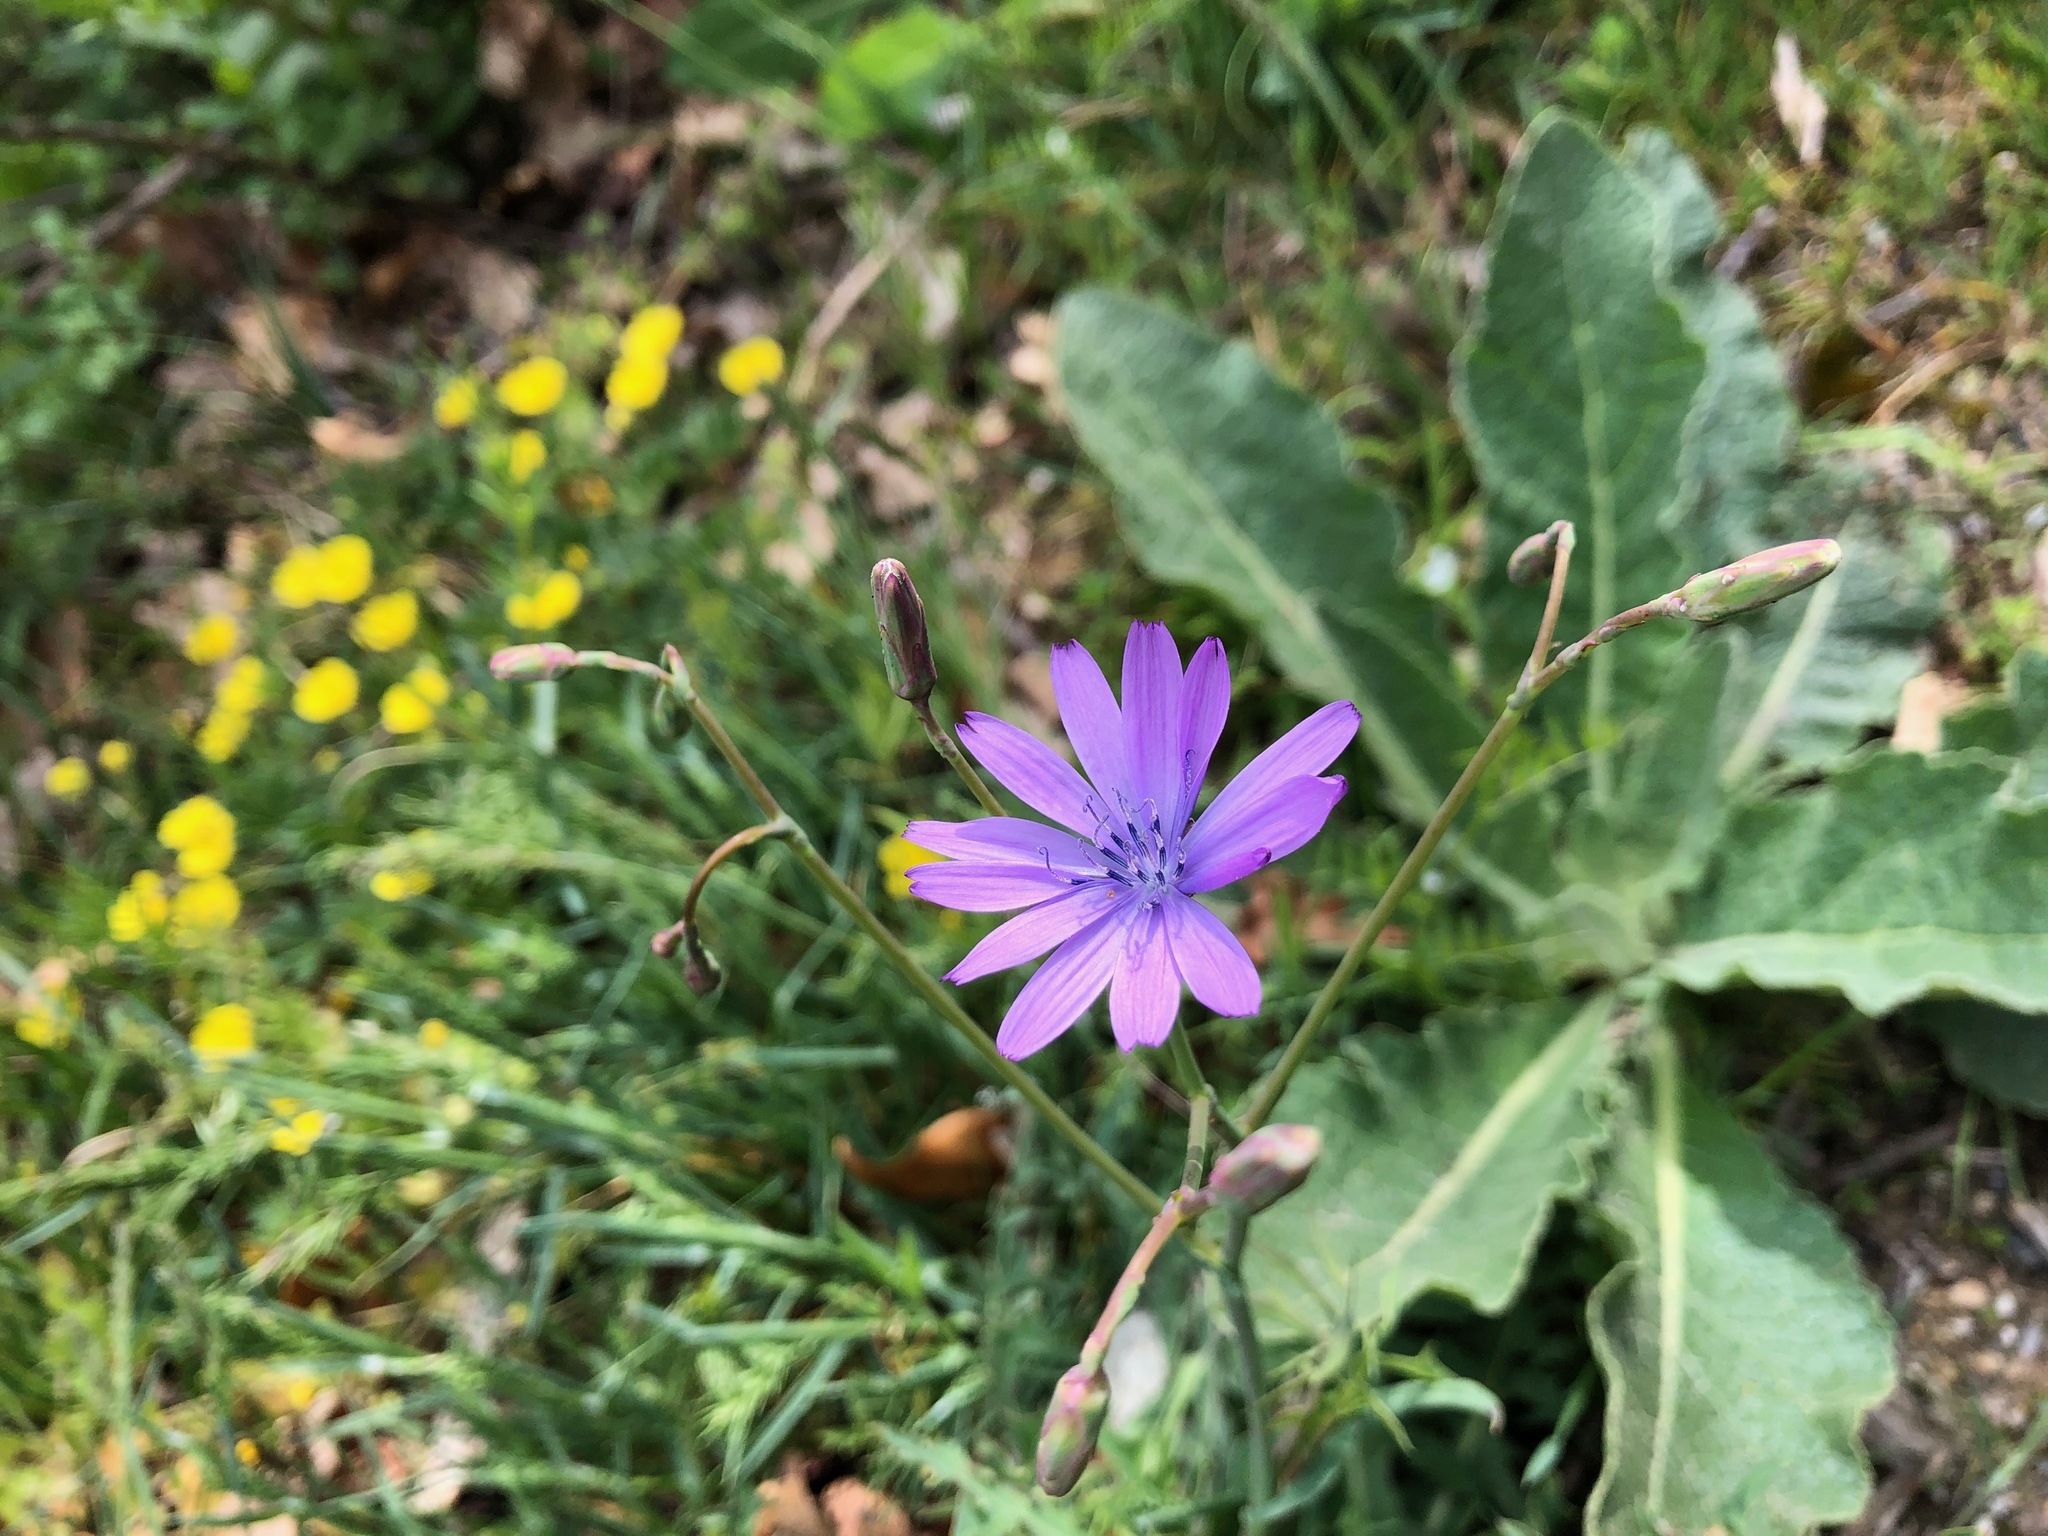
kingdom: Plantae
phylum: Tracheophyta
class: Magnoliopsida
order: Asterales
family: Asteraceae
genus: Lactuca
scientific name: Lactuca perennis
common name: Mountain lettuce
